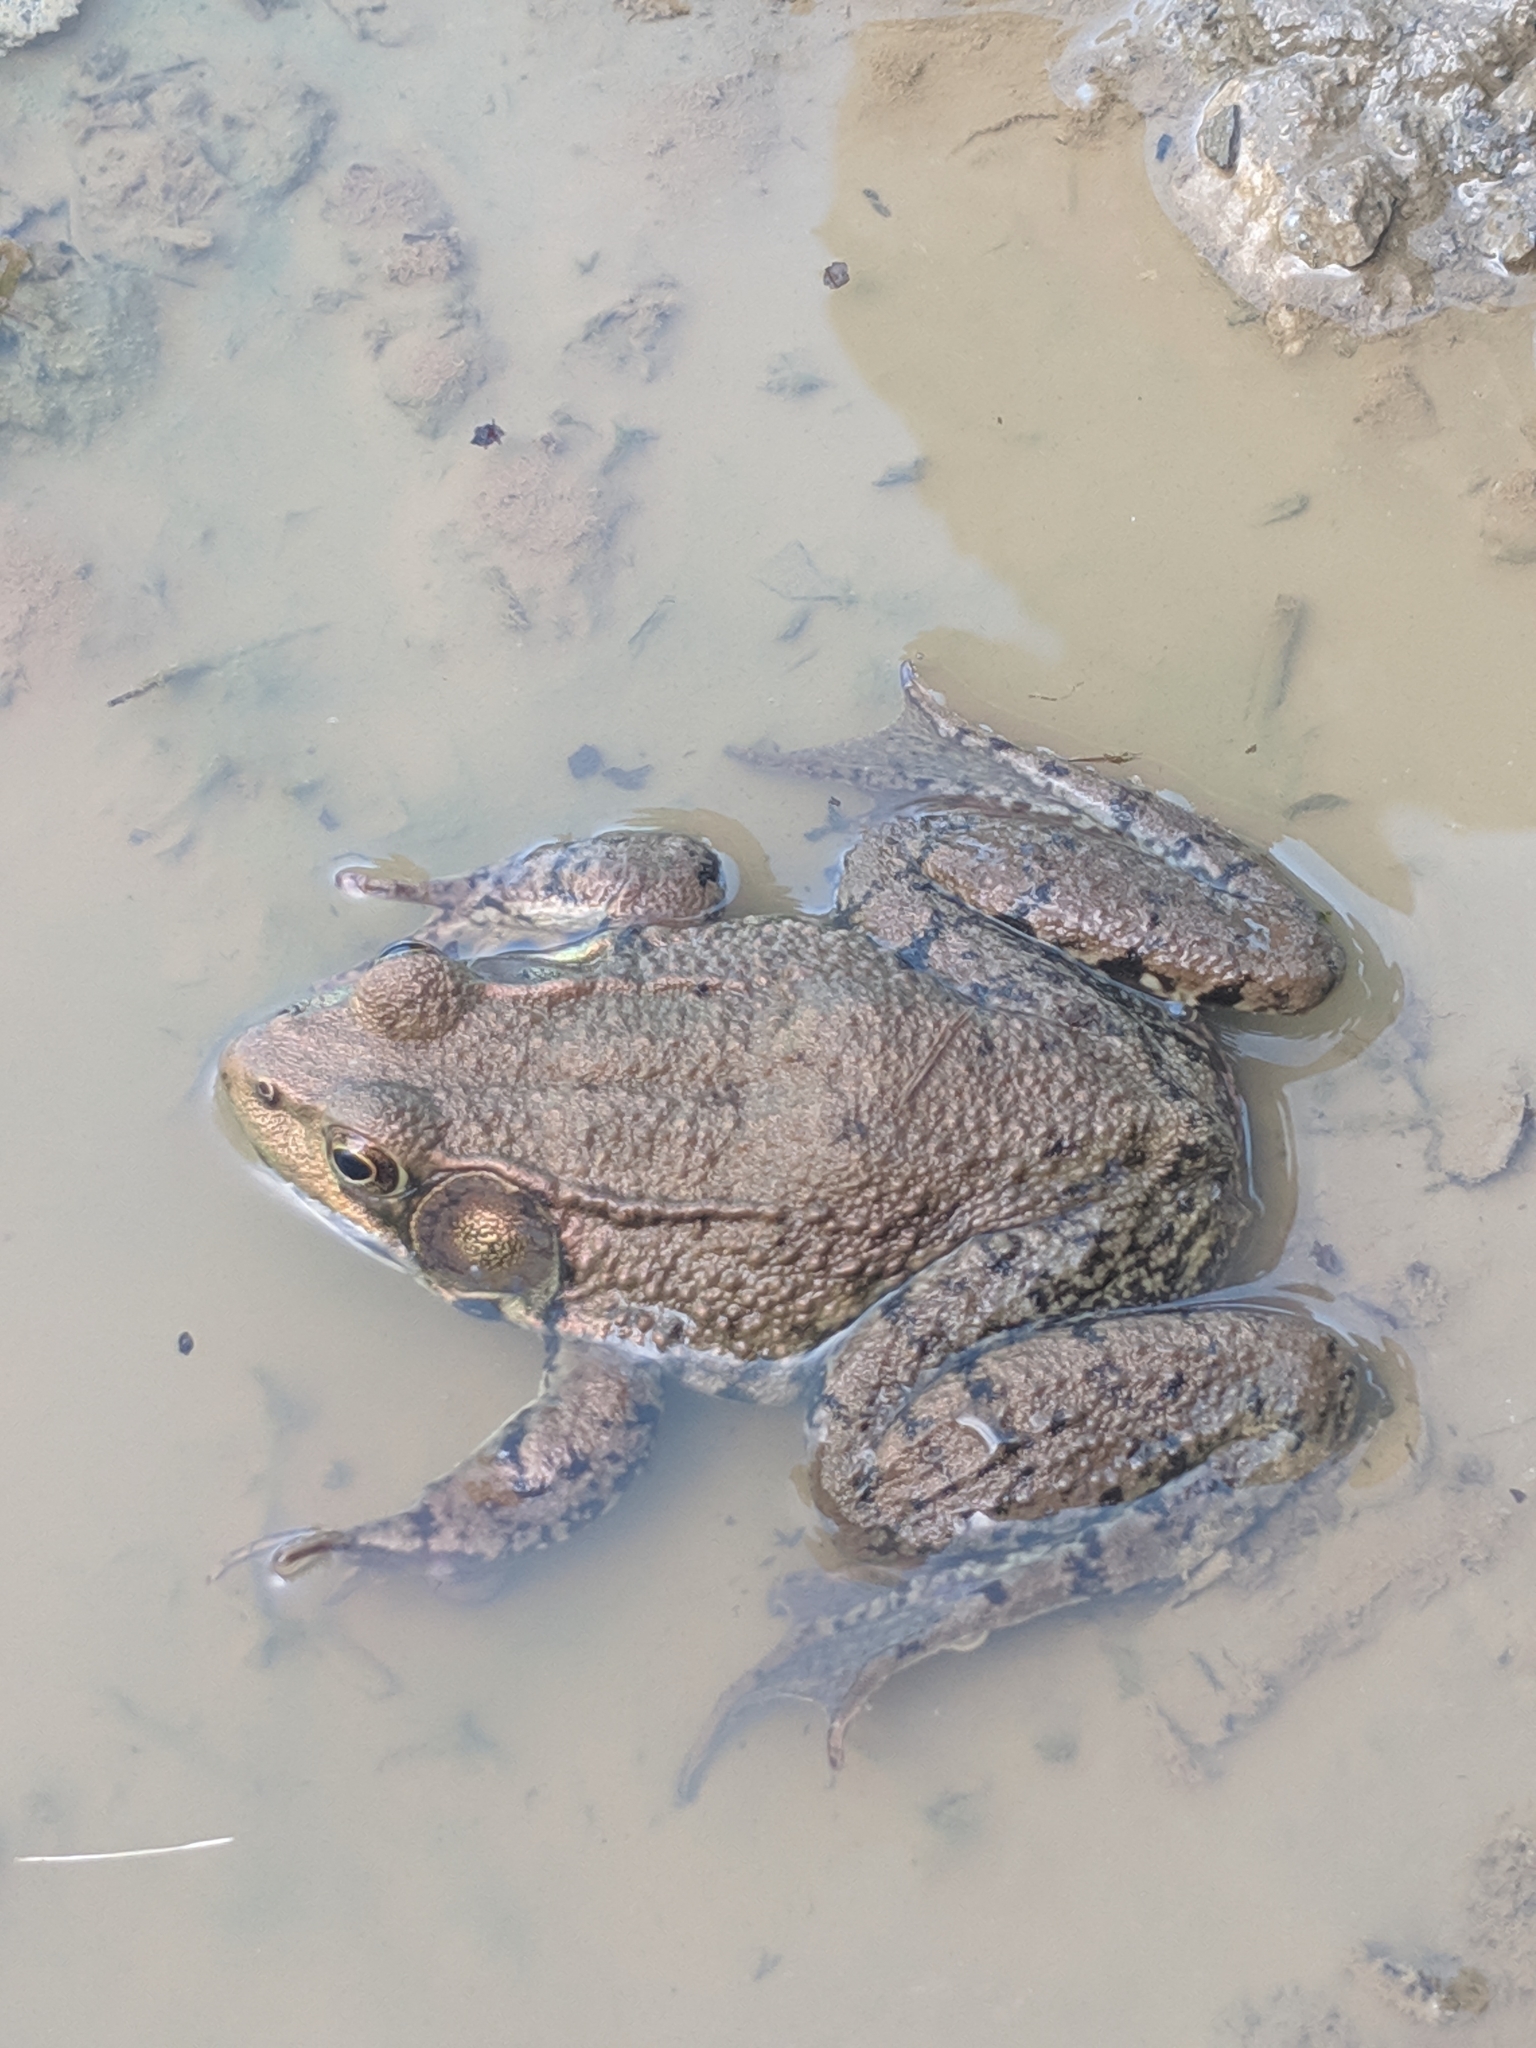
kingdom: Animalia
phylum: Chordata
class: Amphibia
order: Anura
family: Ranidae
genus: Lithobates
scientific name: Lithobates clamitans
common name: Green frog
